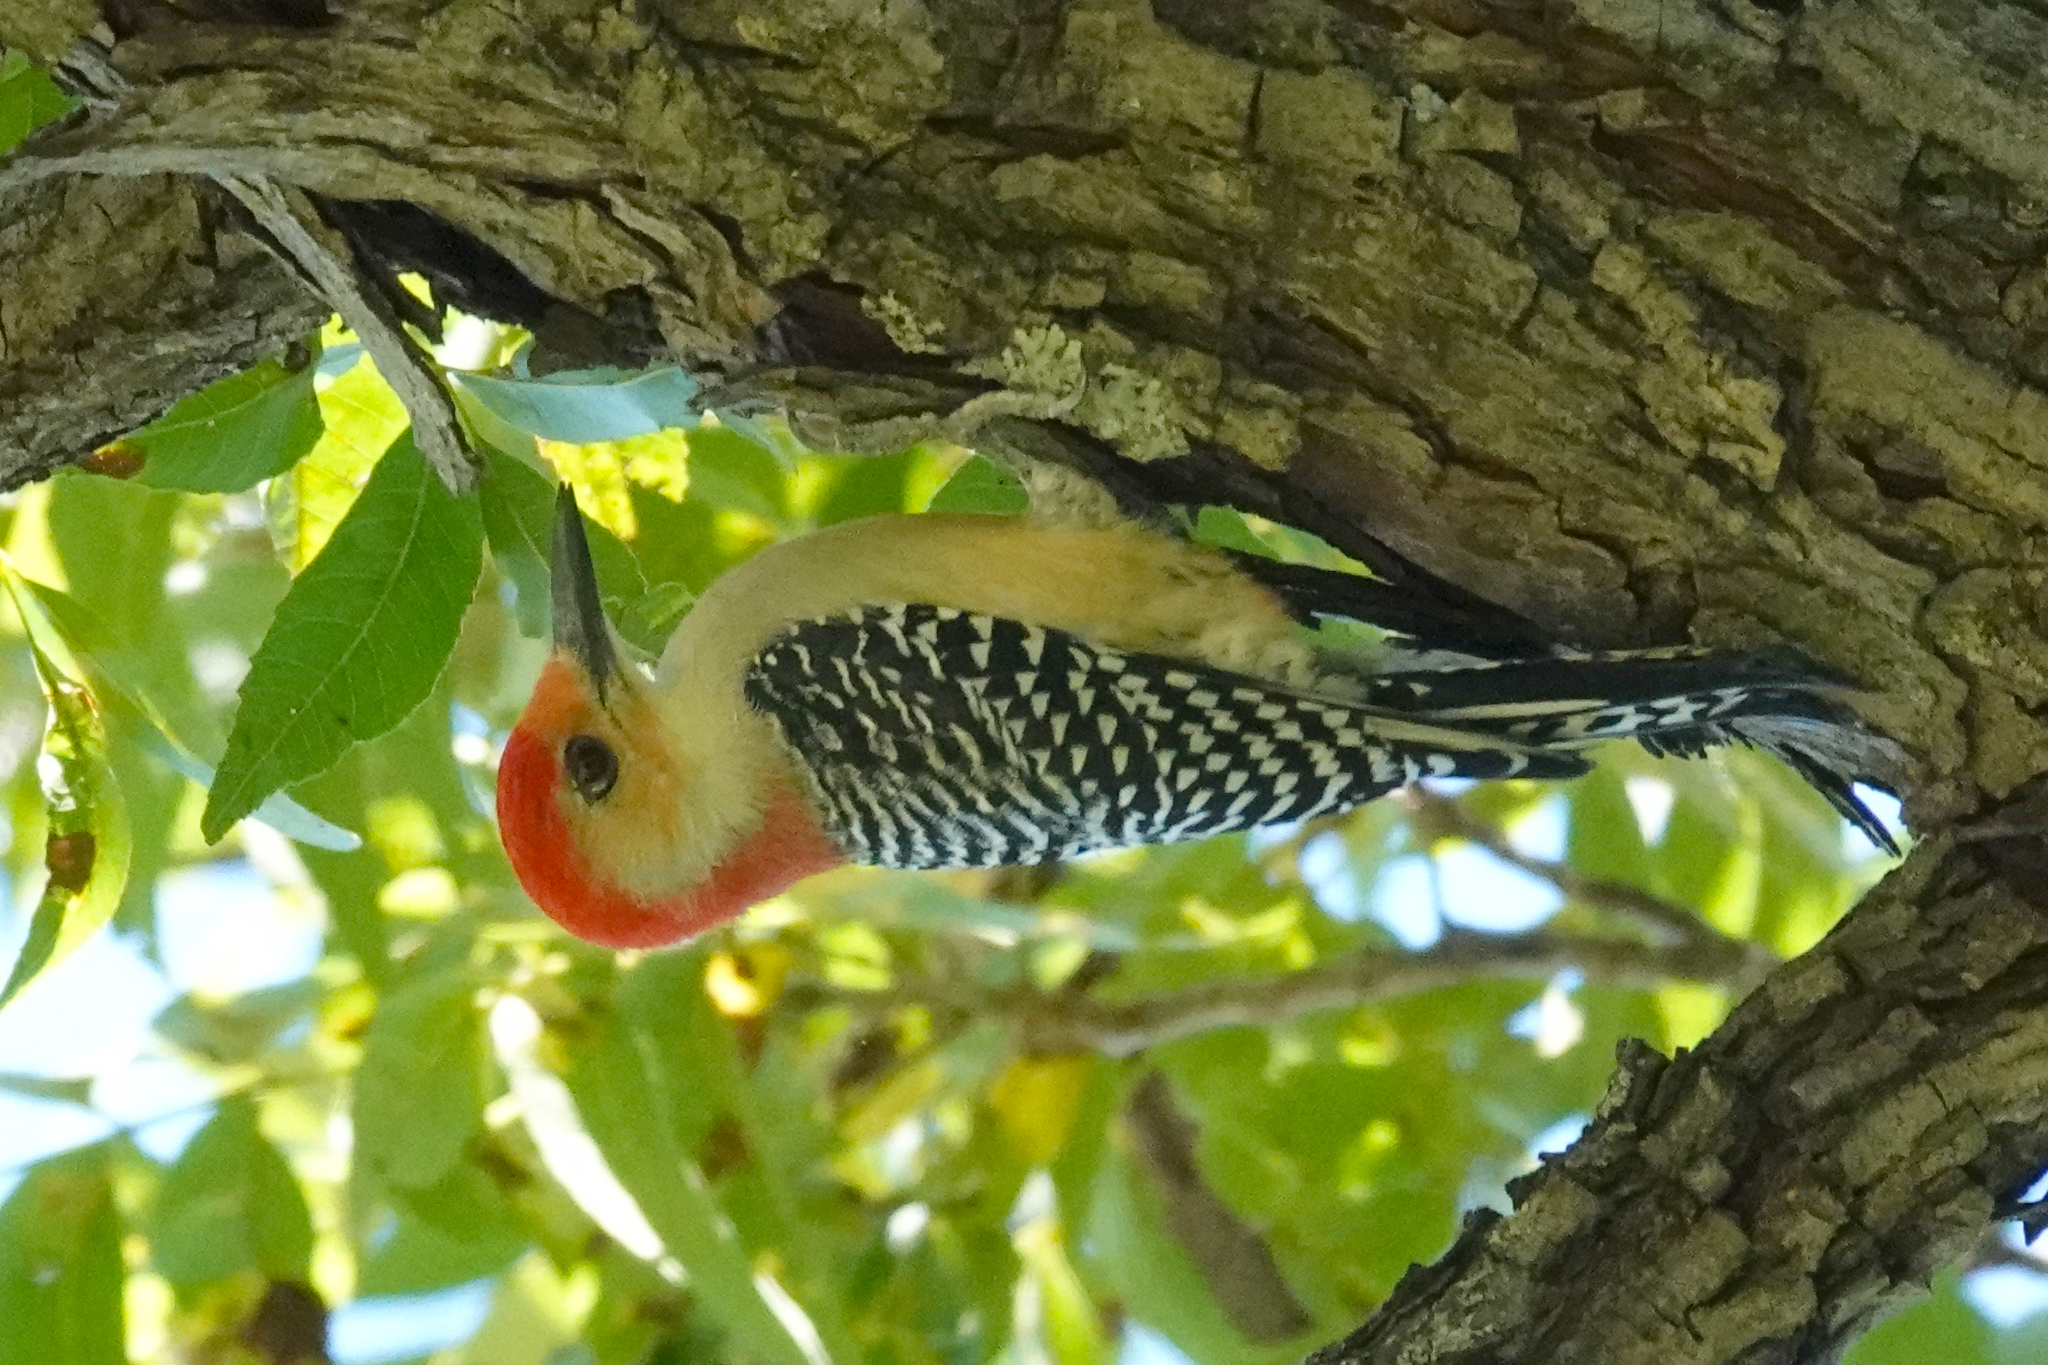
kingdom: Animalia
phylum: Chordata
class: Aves
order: Piciformes
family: Picidae
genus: Melanerpes
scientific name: Melanerpes carolinus
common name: Red-bellied woodpecker
